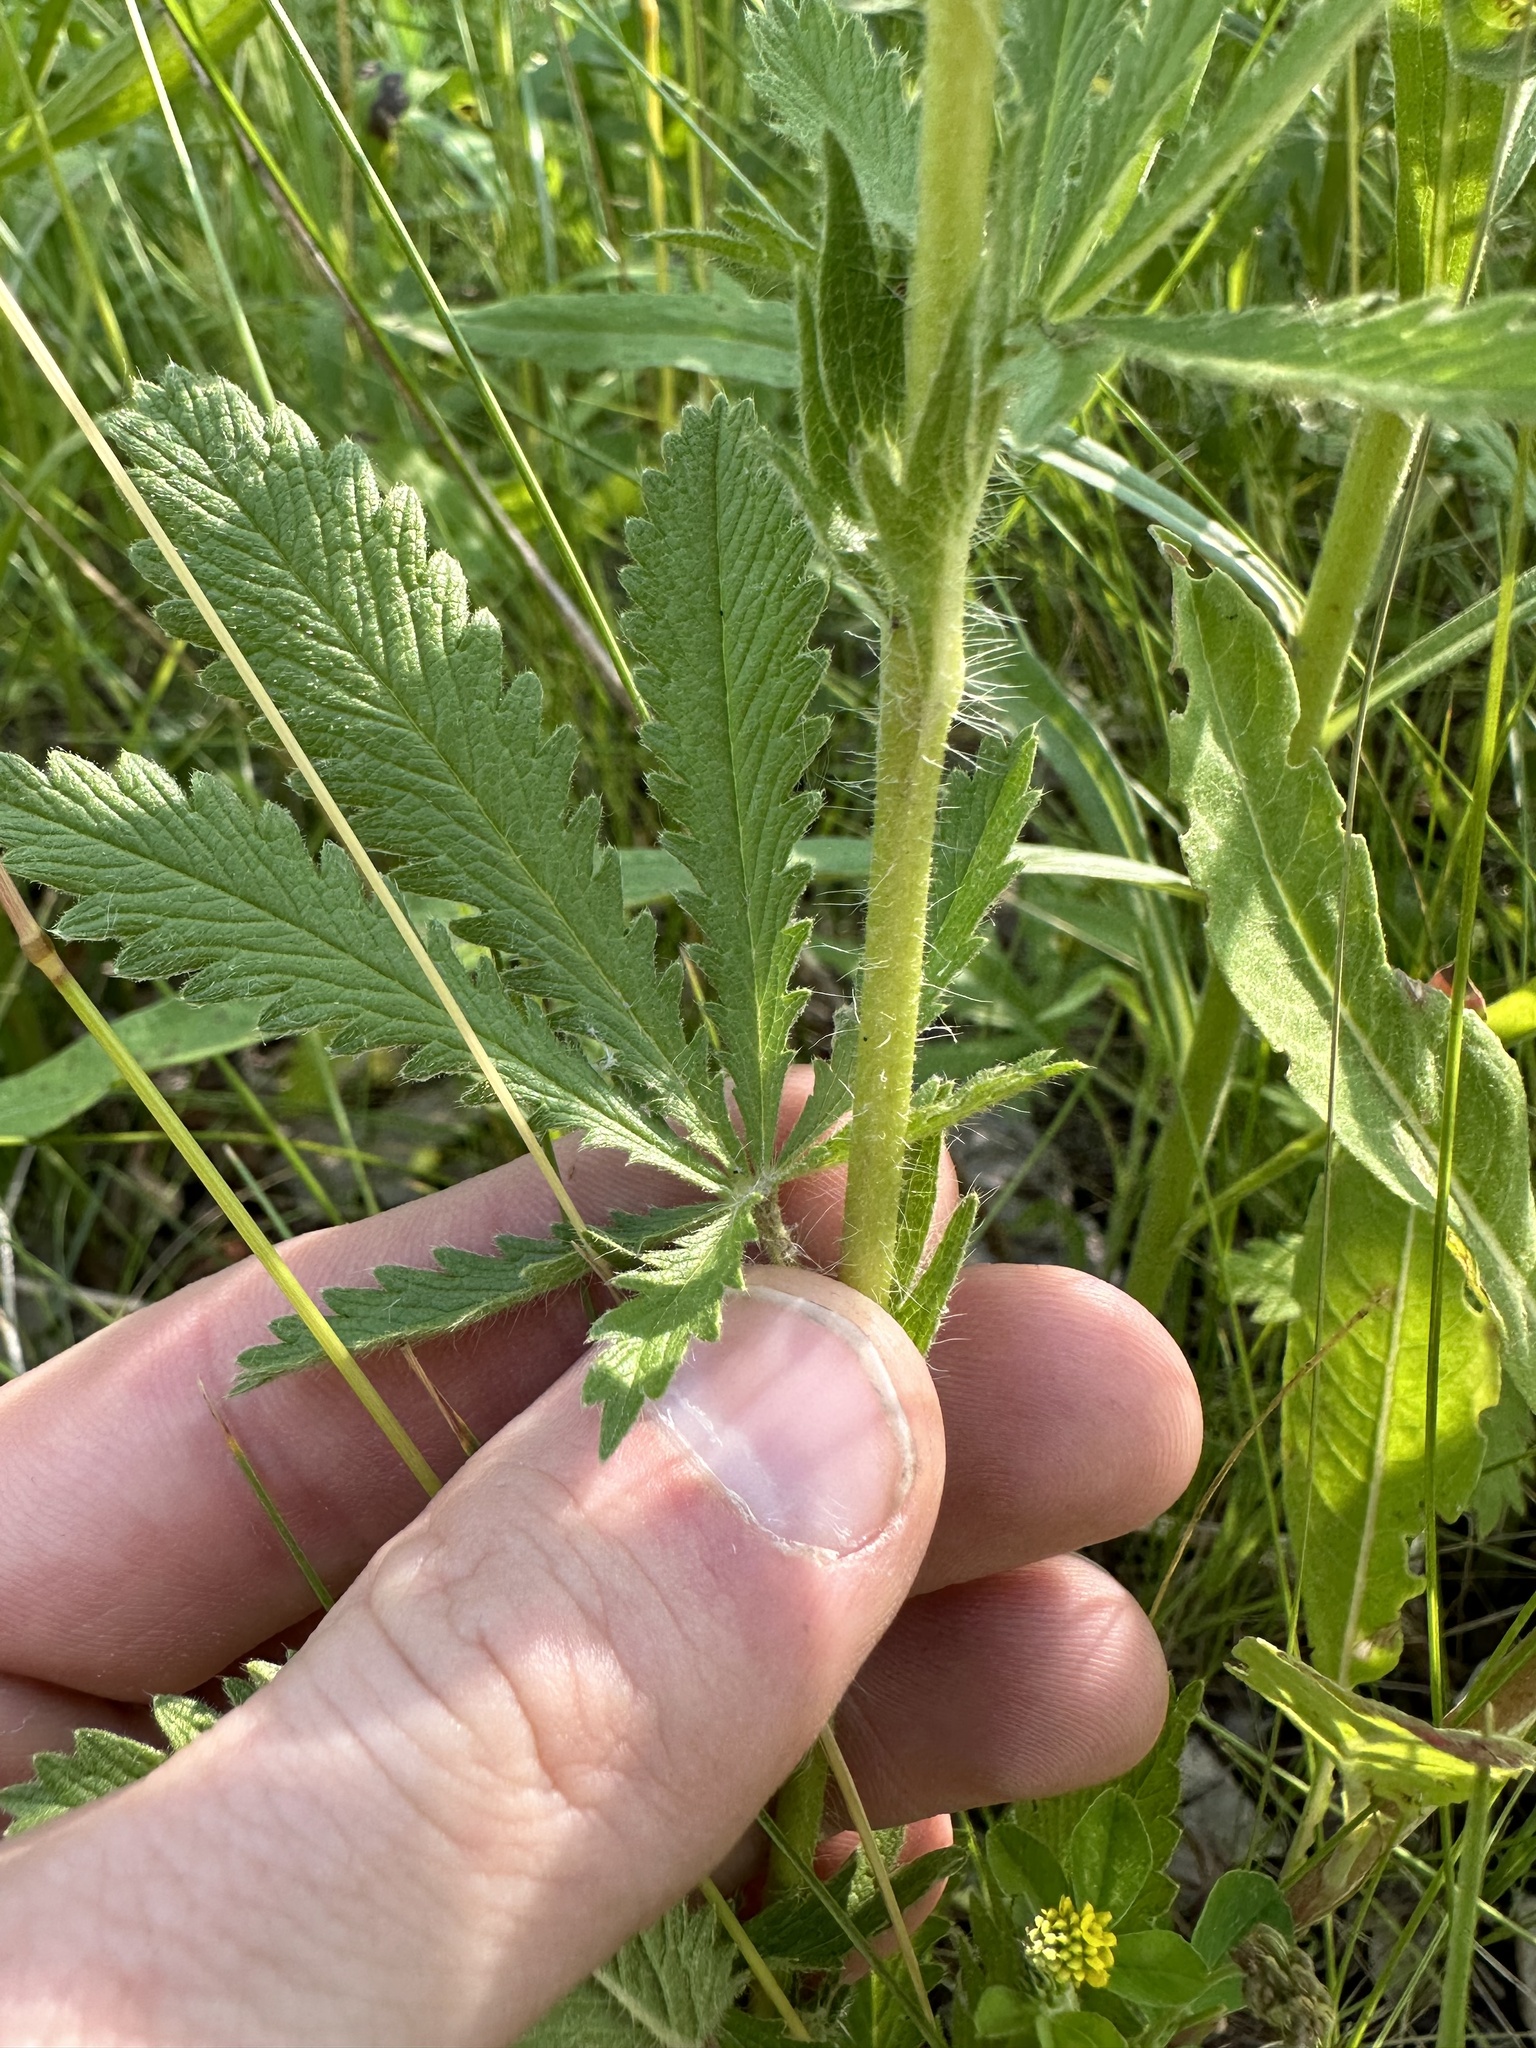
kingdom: Plantae
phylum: Tracheophyta
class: Magnoliopsida
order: Rosales
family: Rosaceae
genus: Potentilla
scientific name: Potentilla recta
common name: Sulphur cinquefoil
